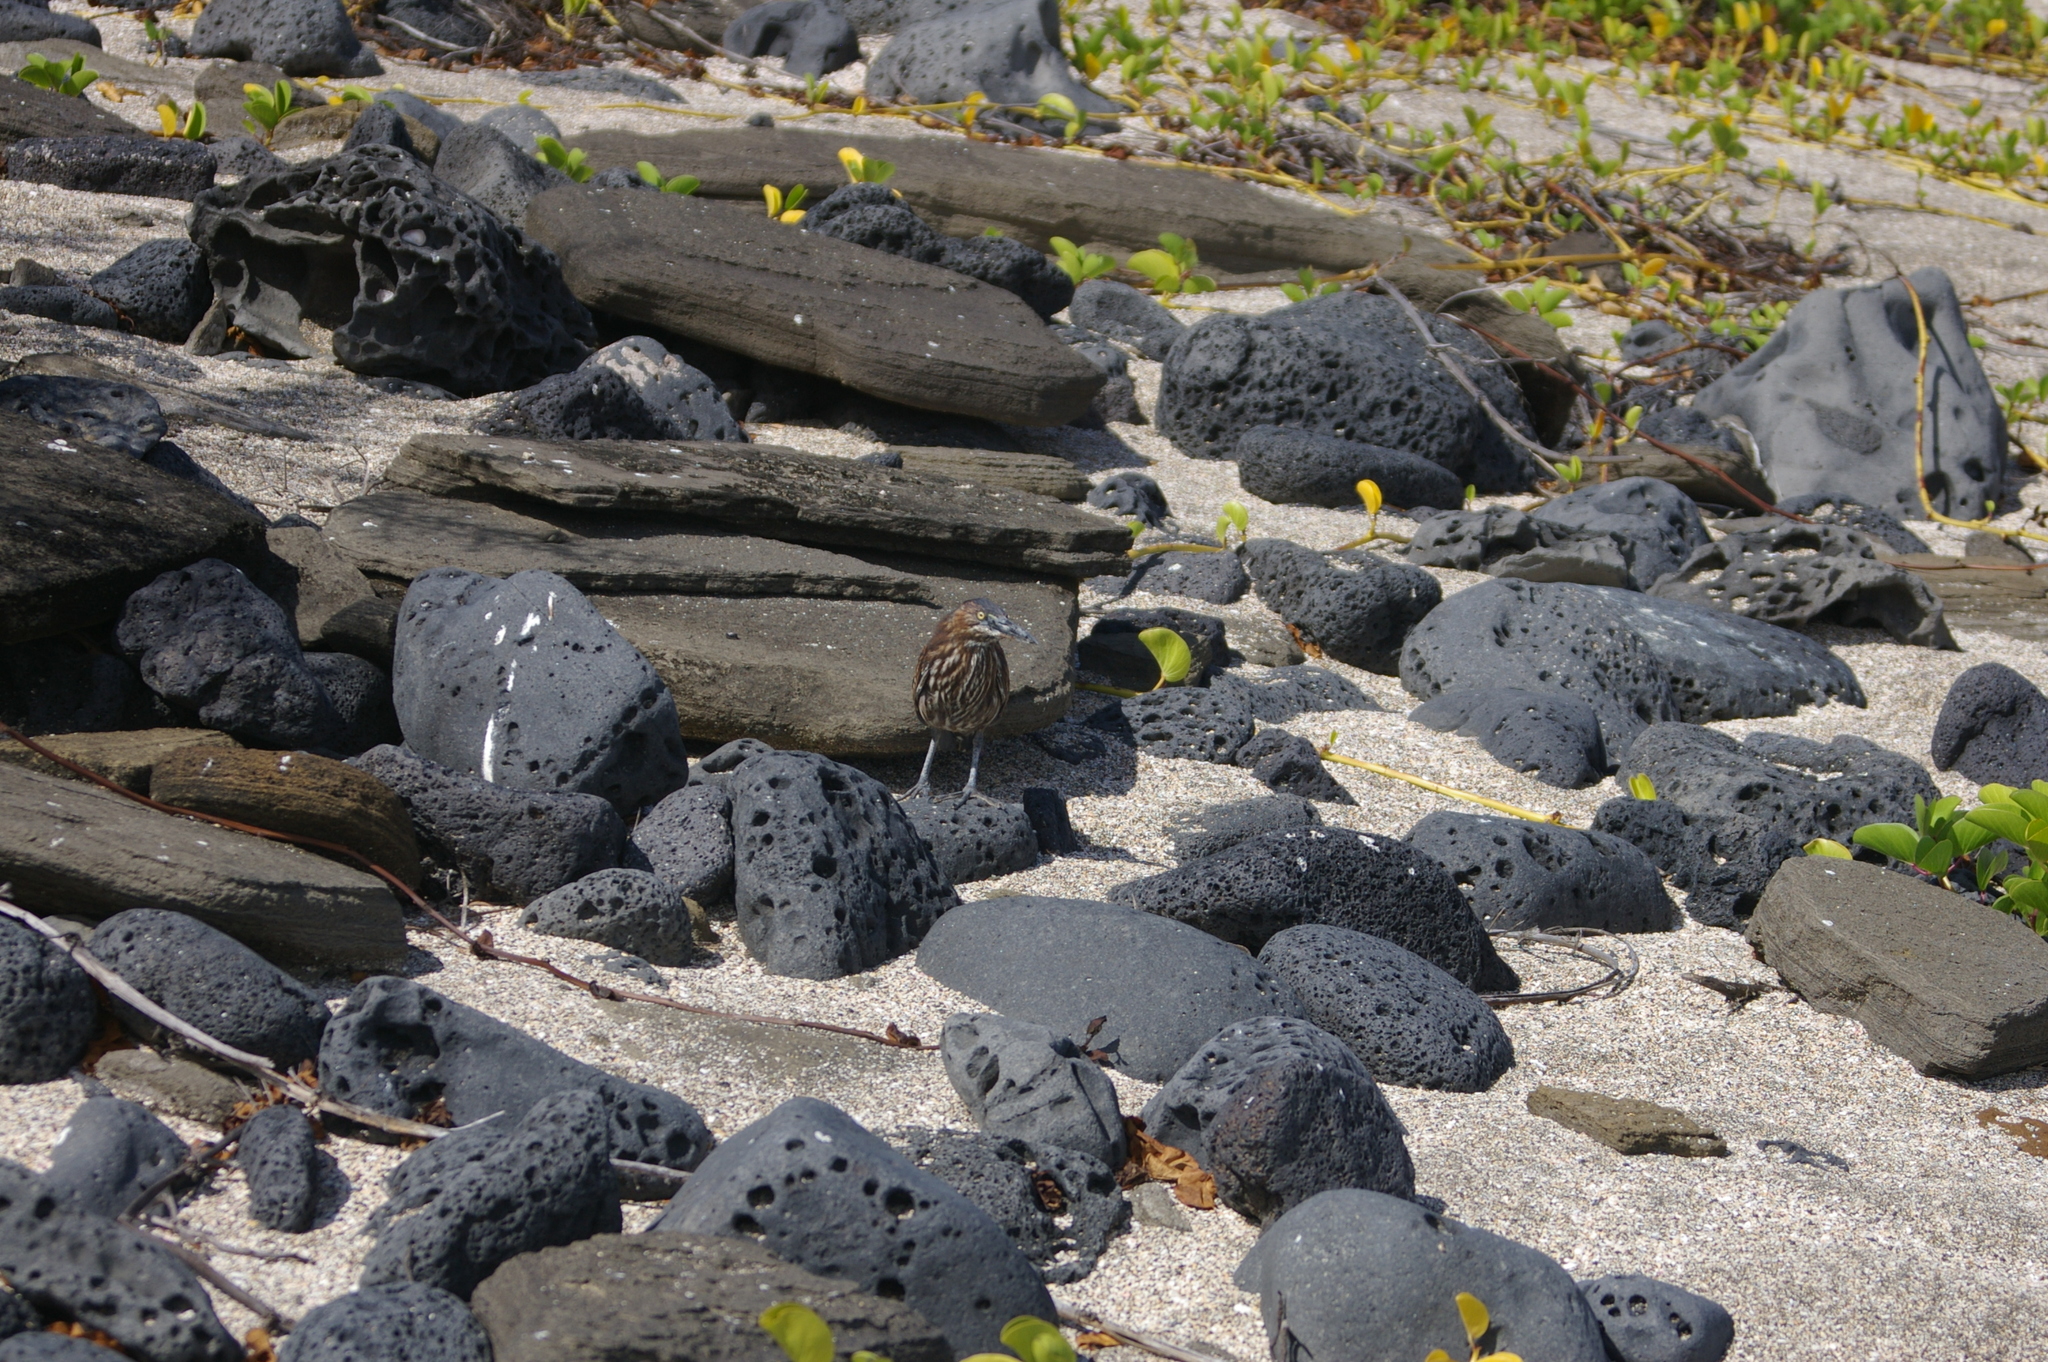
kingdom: Animalia
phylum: Chordata
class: Aves
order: Pelecaniformes
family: Ardeidae
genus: Butorides
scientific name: Butorides striata
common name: Striated heron
